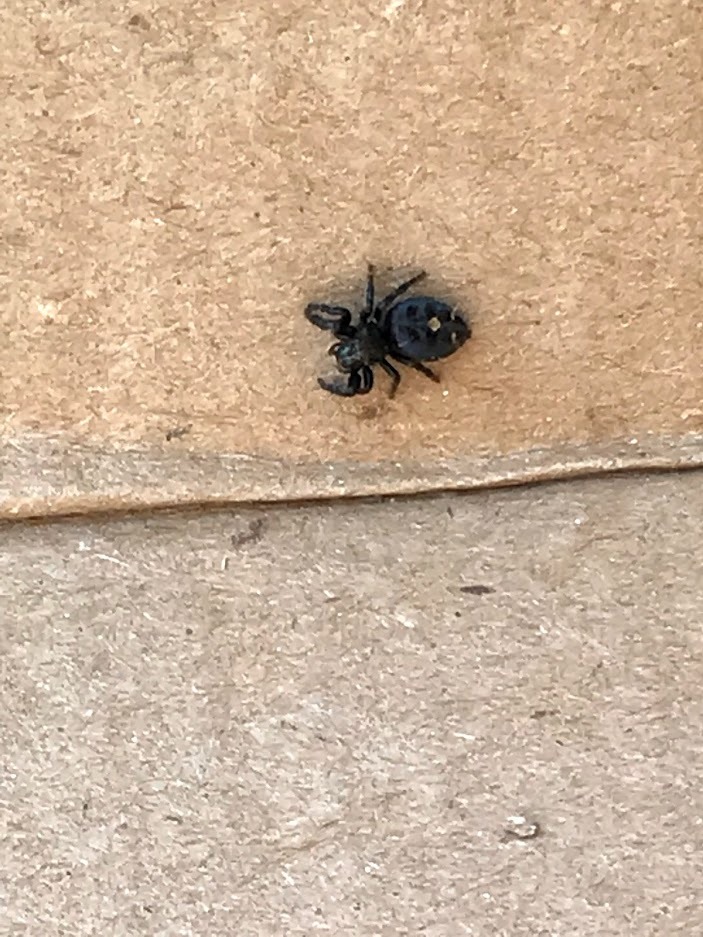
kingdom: Animalia
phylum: Arthropoda
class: Arachnida
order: Araneae
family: Salticidae
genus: Phidippus
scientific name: Phidippus audax
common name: Bold jumper
